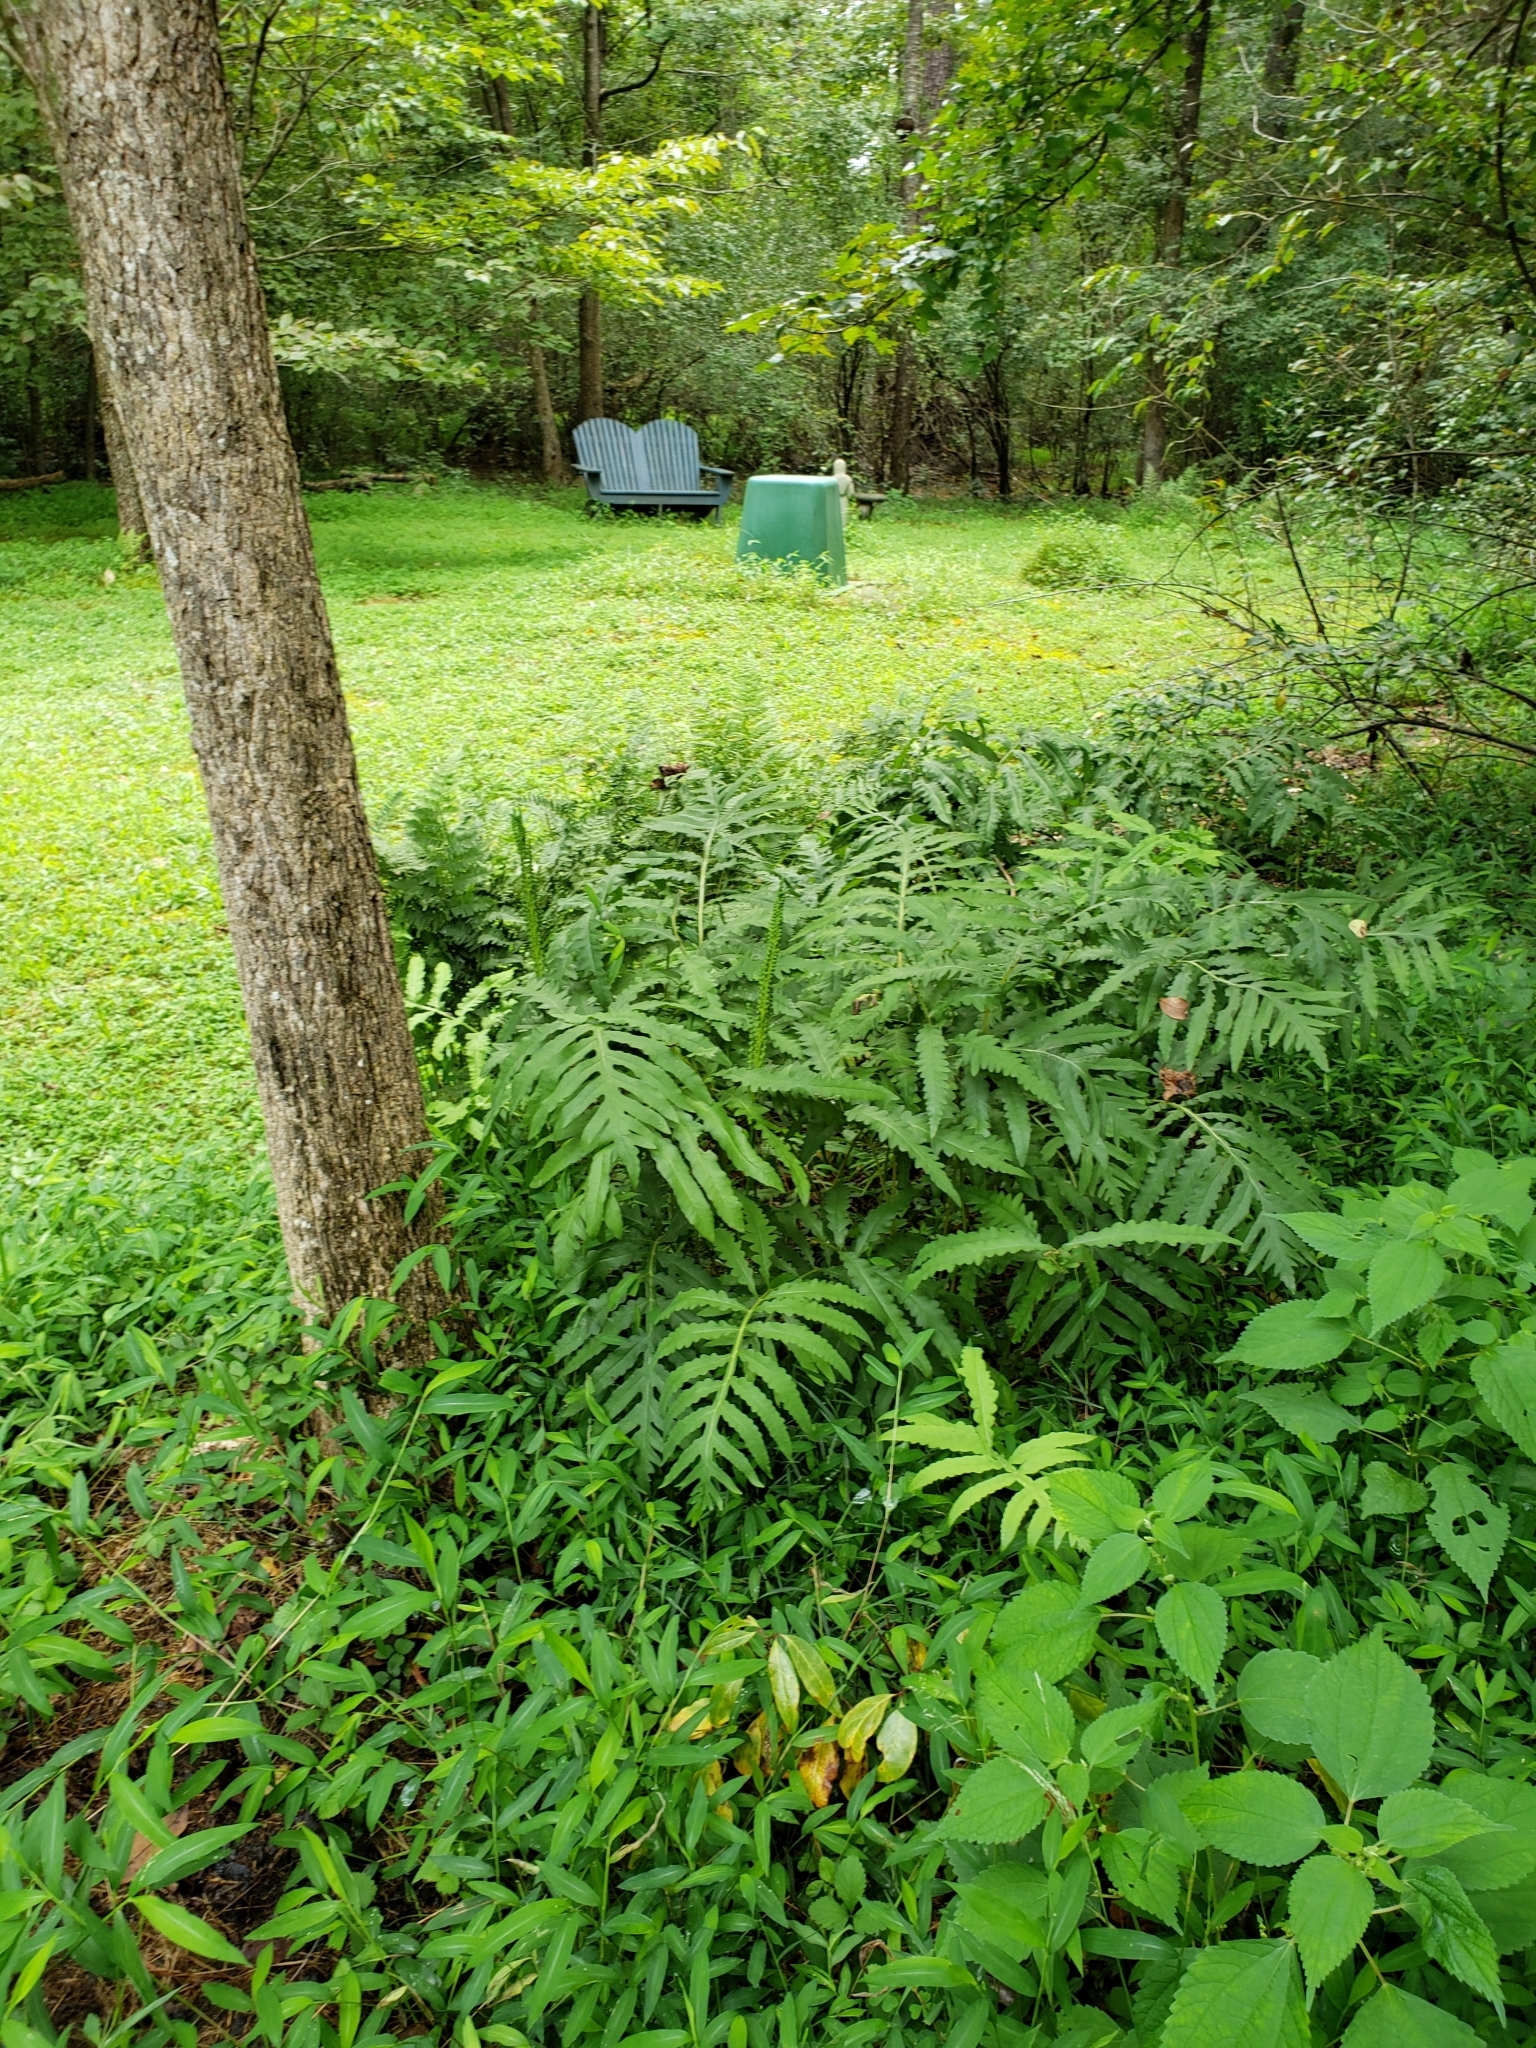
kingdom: Plantae
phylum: Tracheophyta
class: Polypodiopsida
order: Polypodiales
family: Onocleaceae
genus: Onoclea
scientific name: Onoclea sensibilis
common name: Sensitive fern
